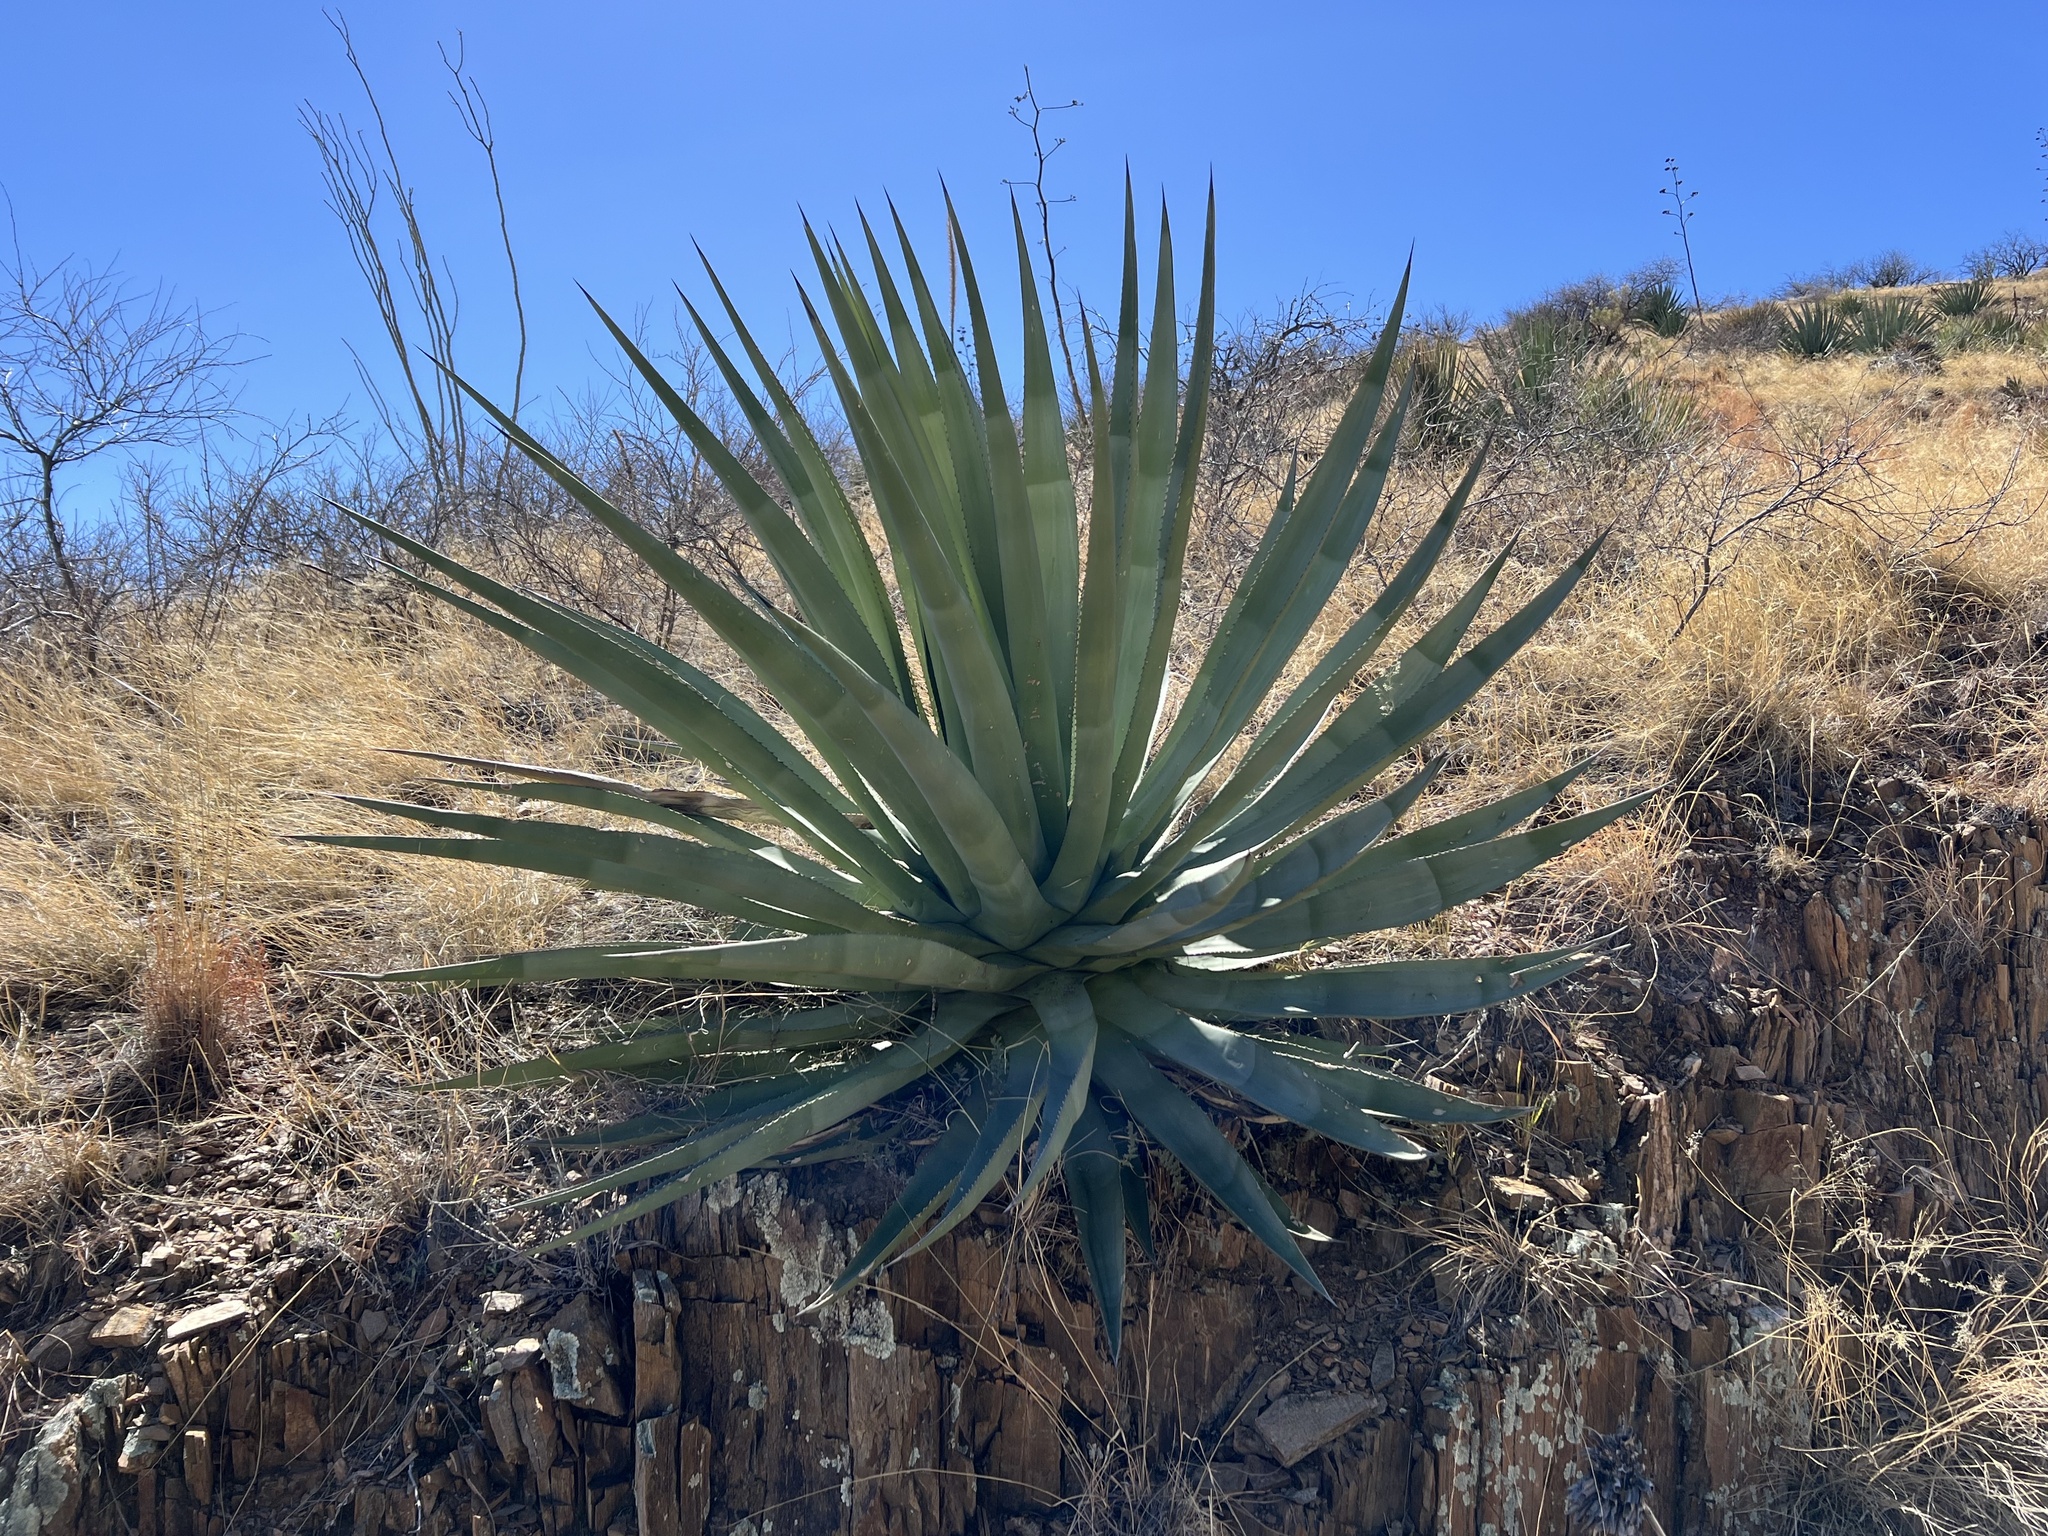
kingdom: Plantae
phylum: Tracheophyta
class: Liliopsida
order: Asparagales
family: Asparagaceae
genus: Agave
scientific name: Agave palmeri
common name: Palmer agave
